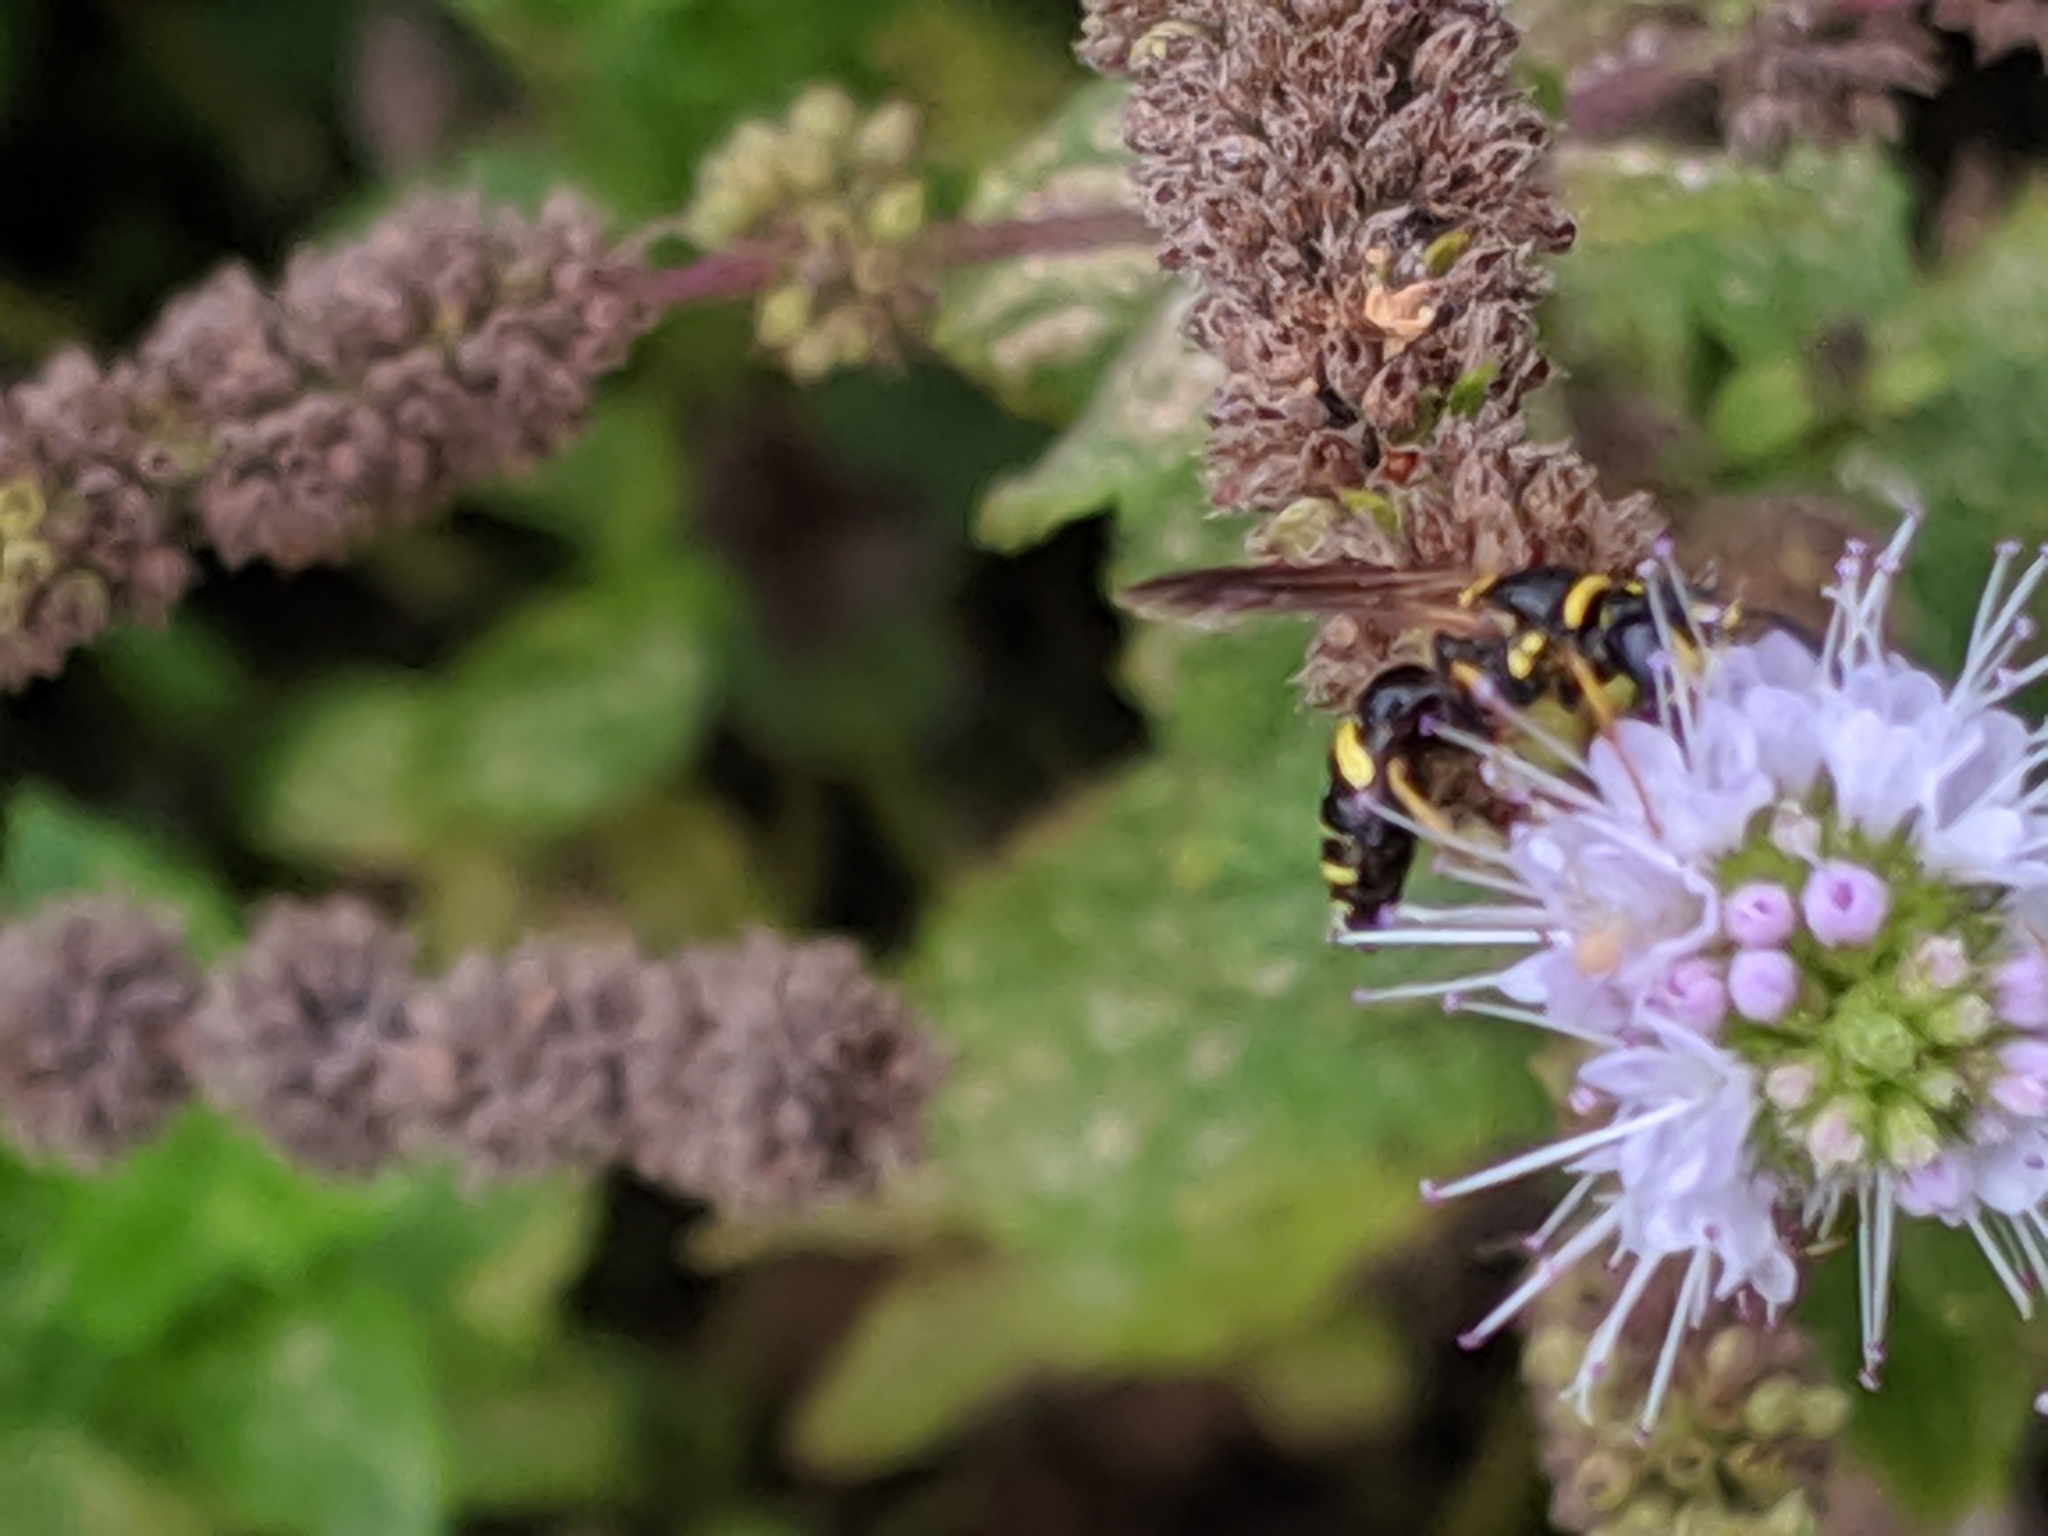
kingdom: Animalia
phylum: Arthropoda
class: Insecta
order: Hymenoptera
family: Crabronidae
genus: Philanthus
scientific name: Philanthus gibbosus
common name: Humped beewolf
